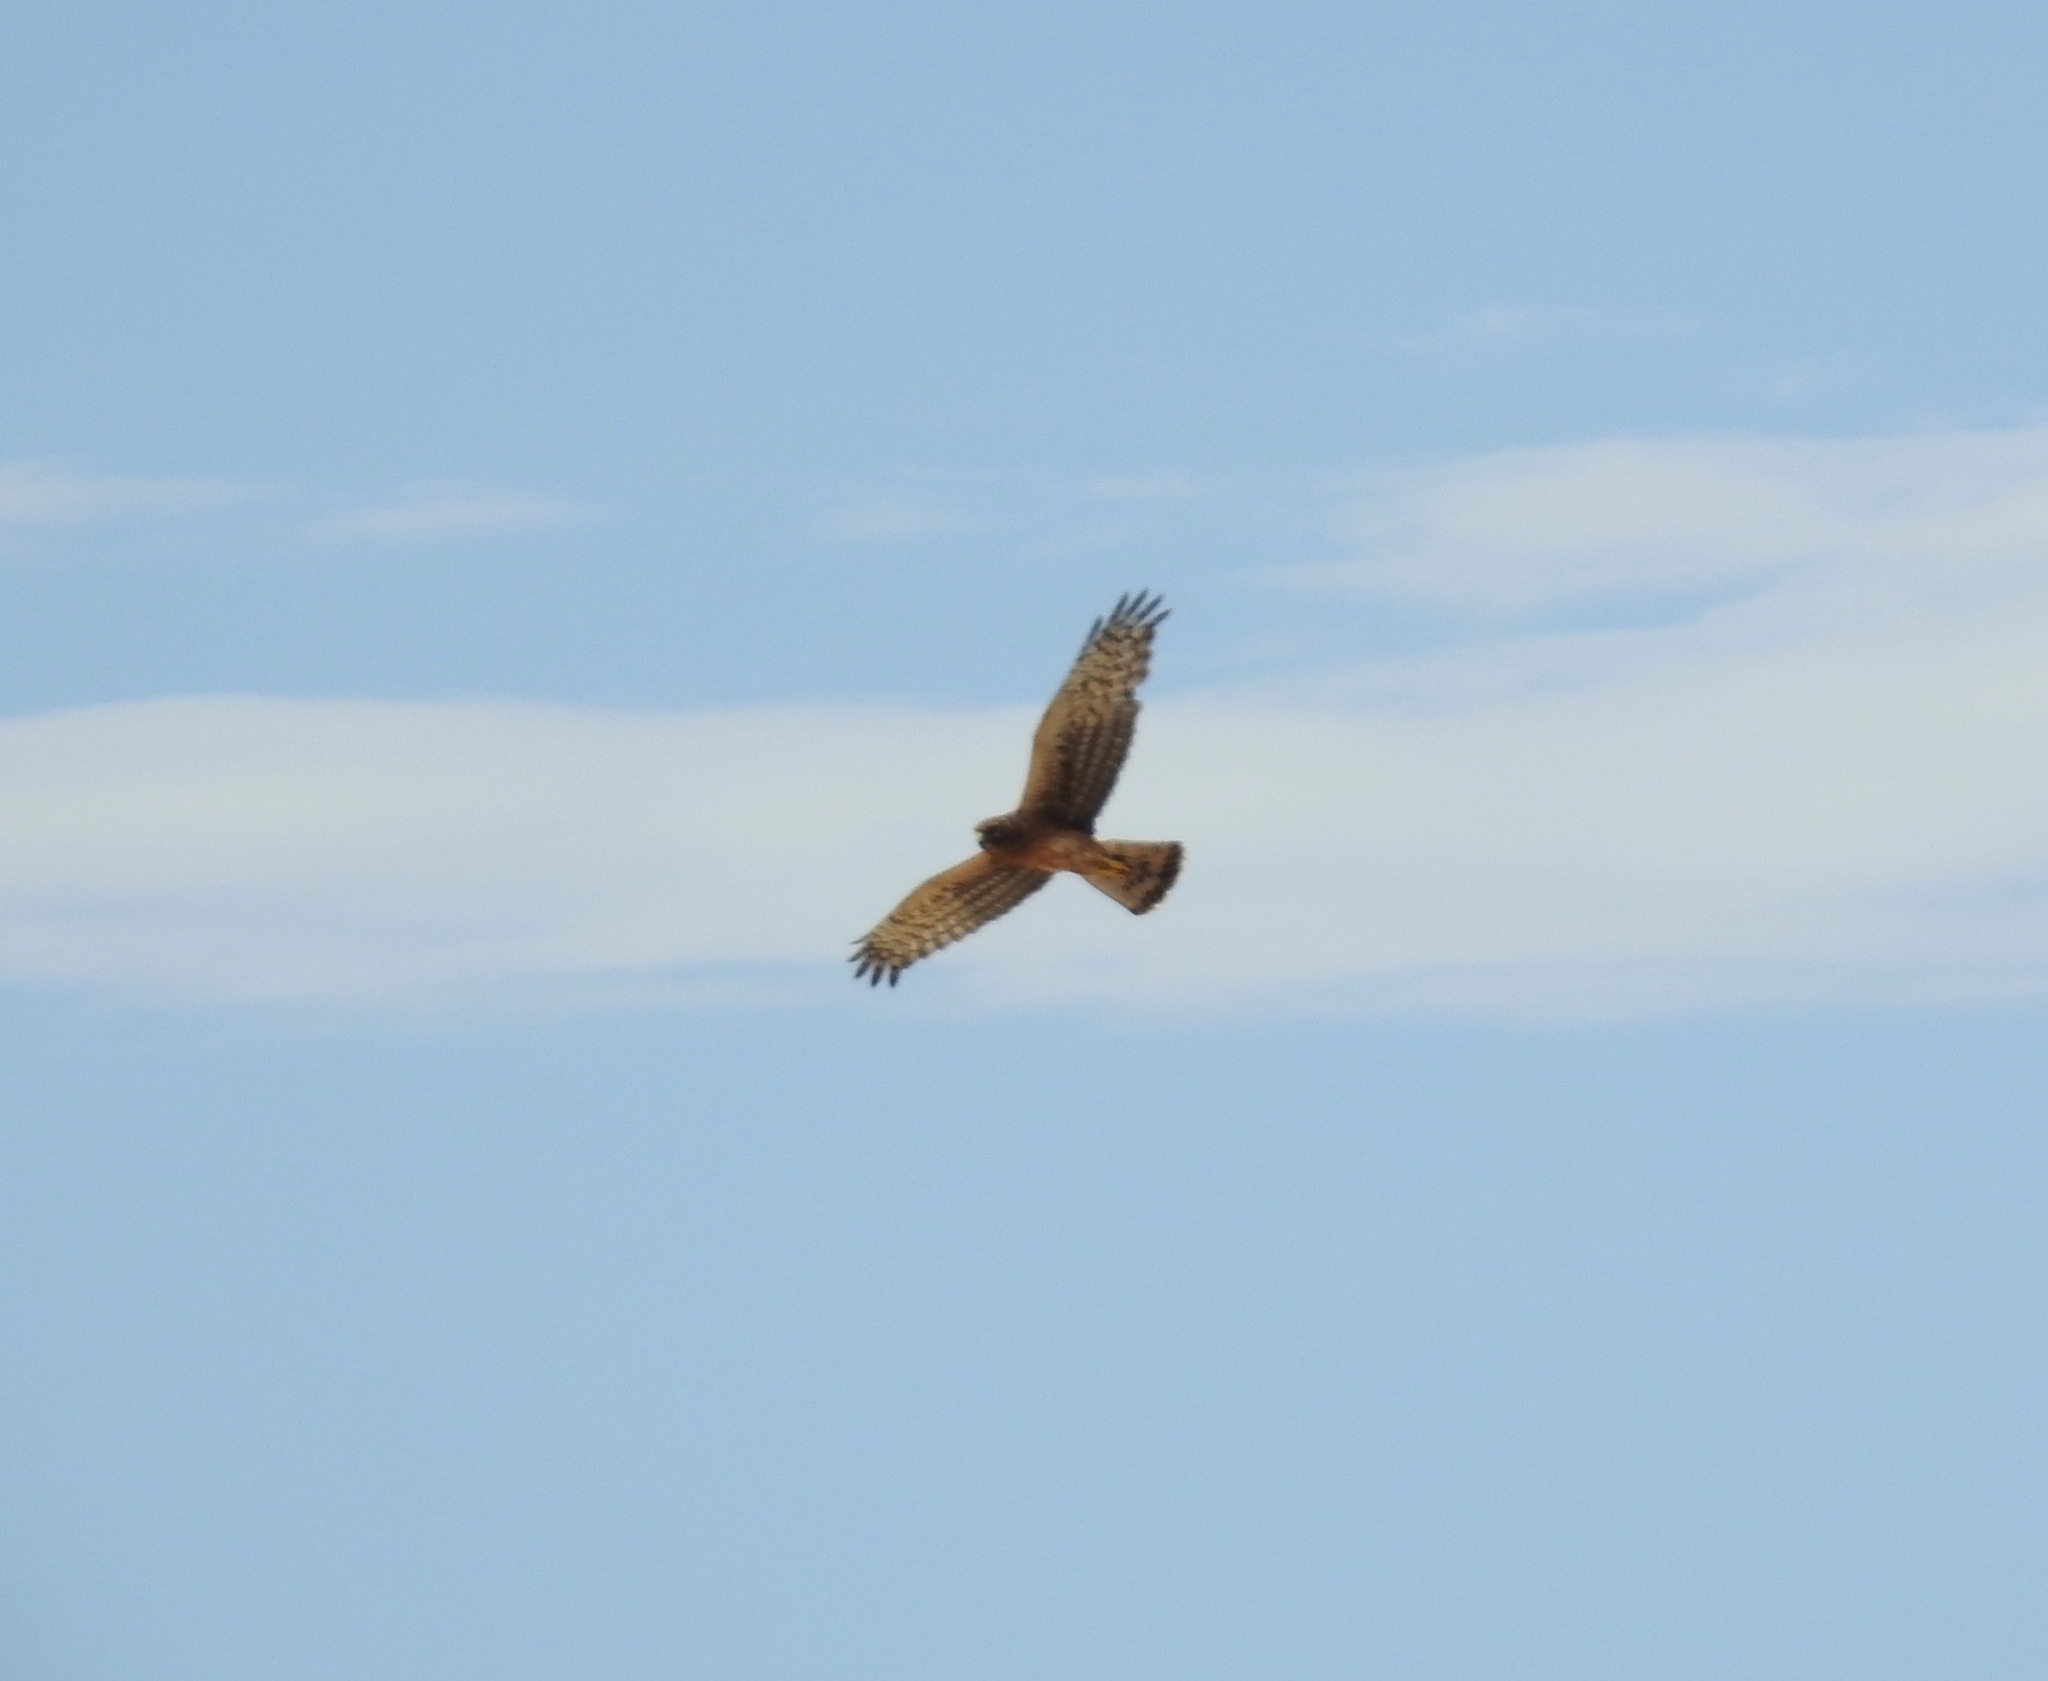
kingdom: Animalia
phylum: Chordata
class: Aves
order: Accipitriformes
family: Accipitridae
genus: Circus
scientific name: Circus cyaneus
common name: Hen harrier
